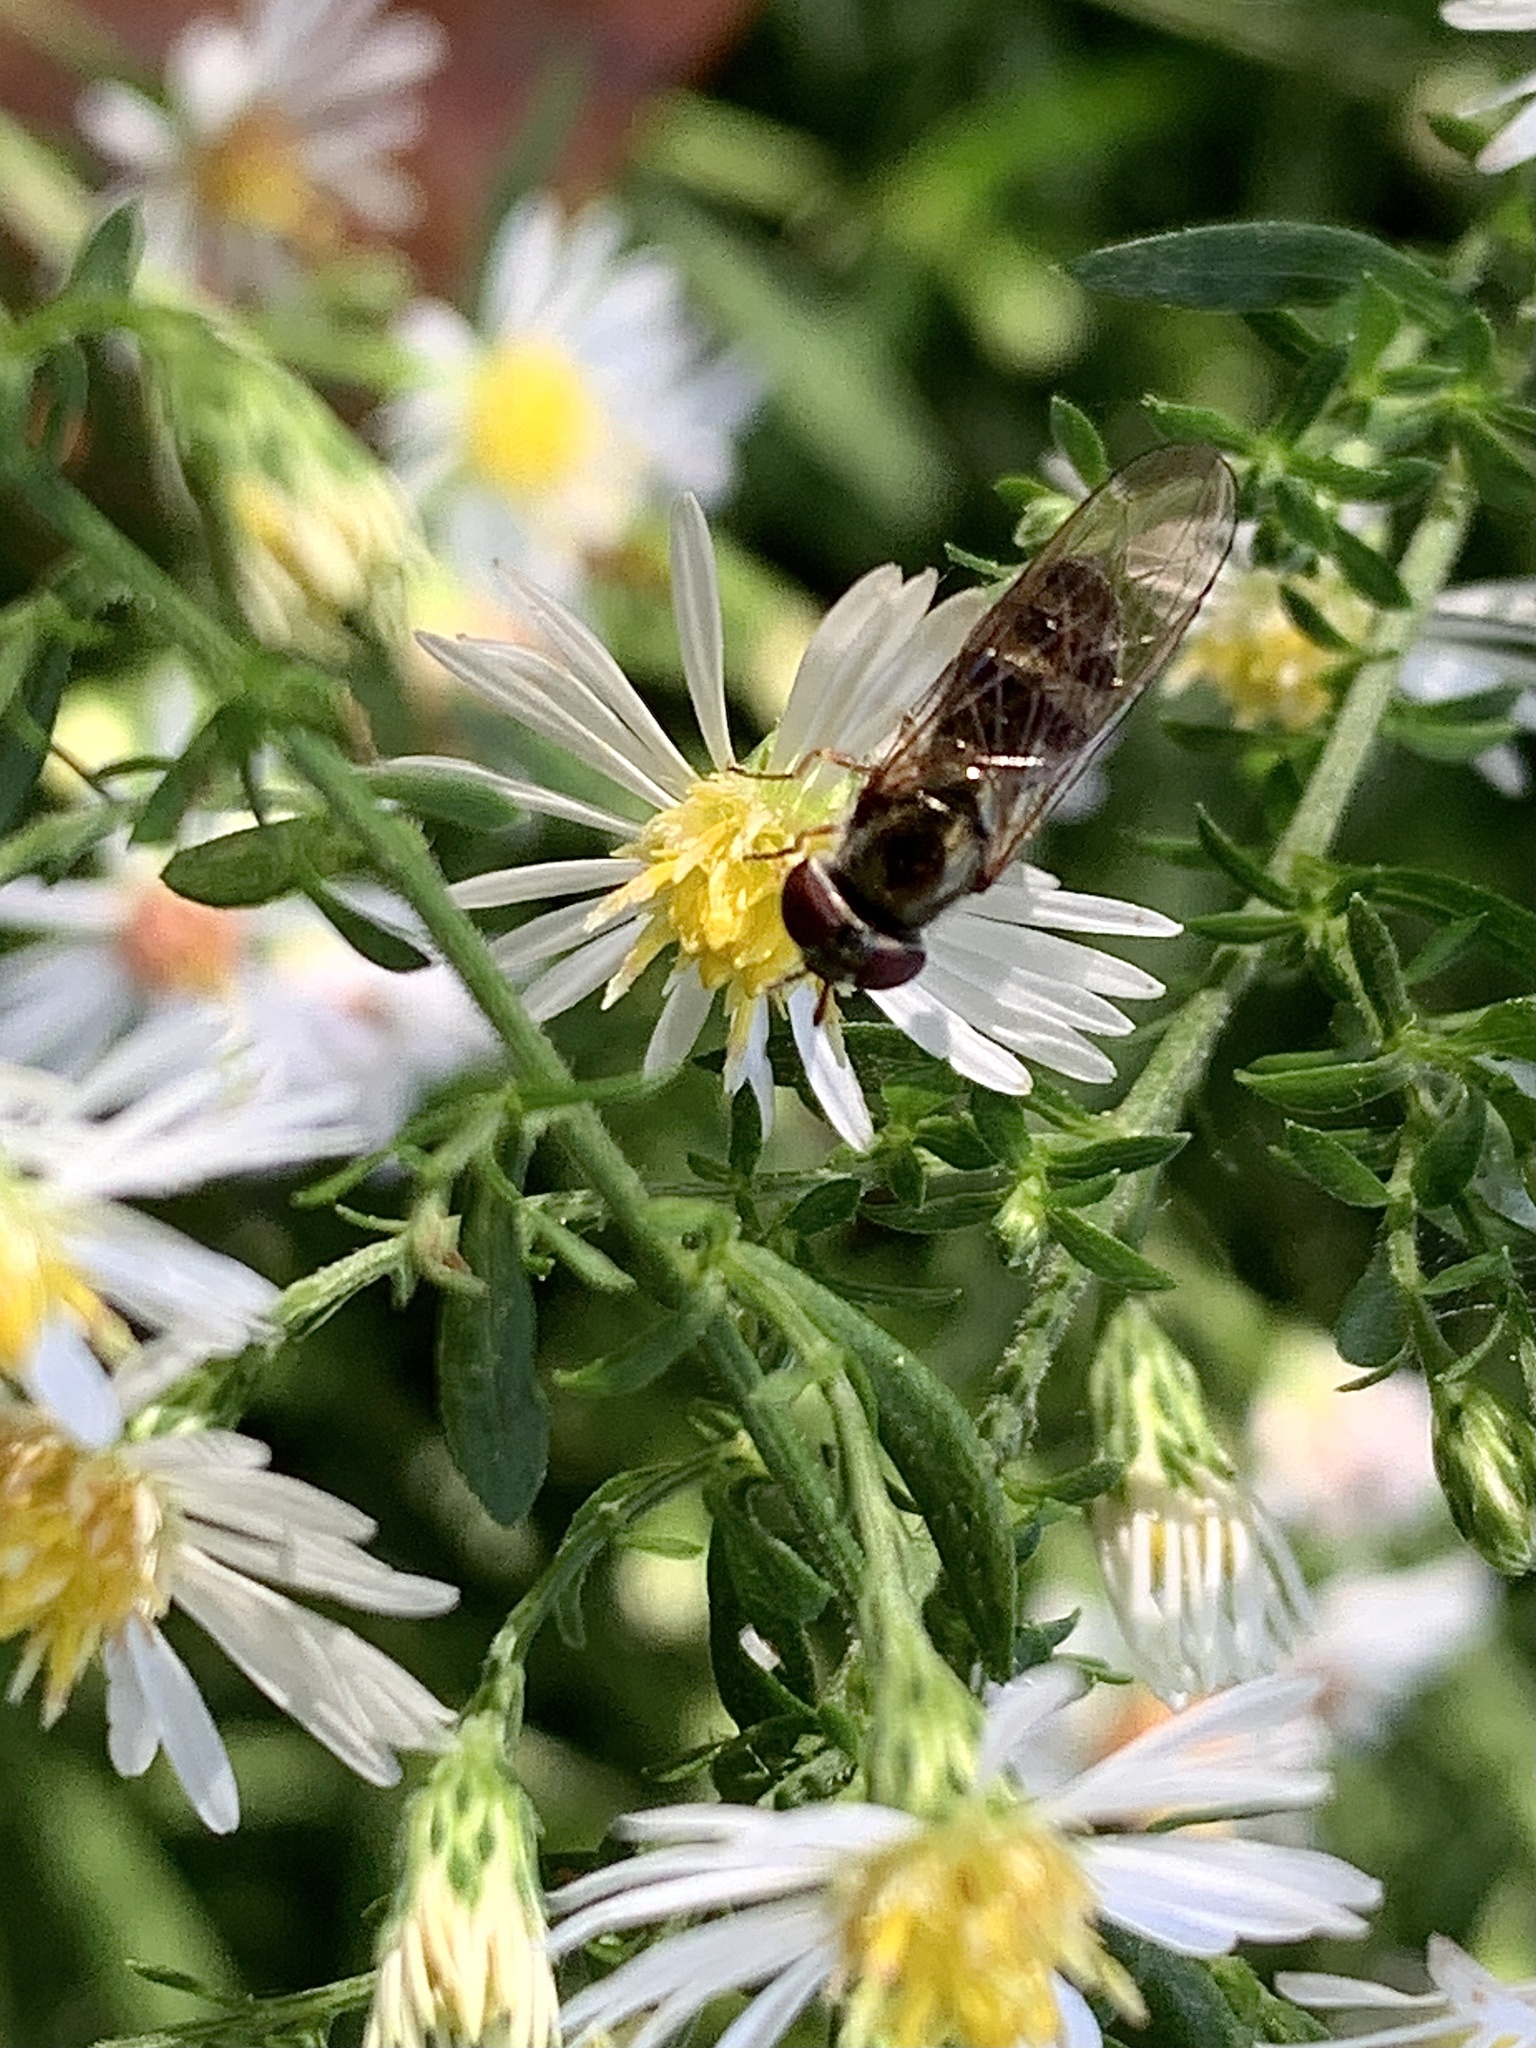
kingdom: Animalia
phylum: Arthropoda
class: Insecta
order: Diptera
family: Syrphidae
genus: Toxomerus
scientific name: Toxomerus geminatus
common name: Eastern calligrapher
